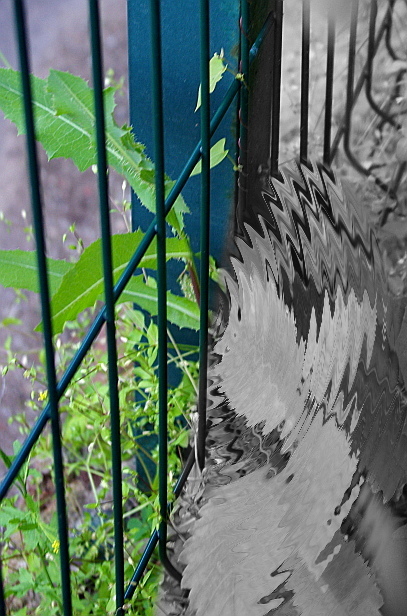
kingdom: Plantae
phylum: Tracheophyta
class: Magnoliopsida
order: Asterales
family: Asteraceae
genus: Lactuca
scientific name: Lactuca serriola
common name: Prickly lettuce
